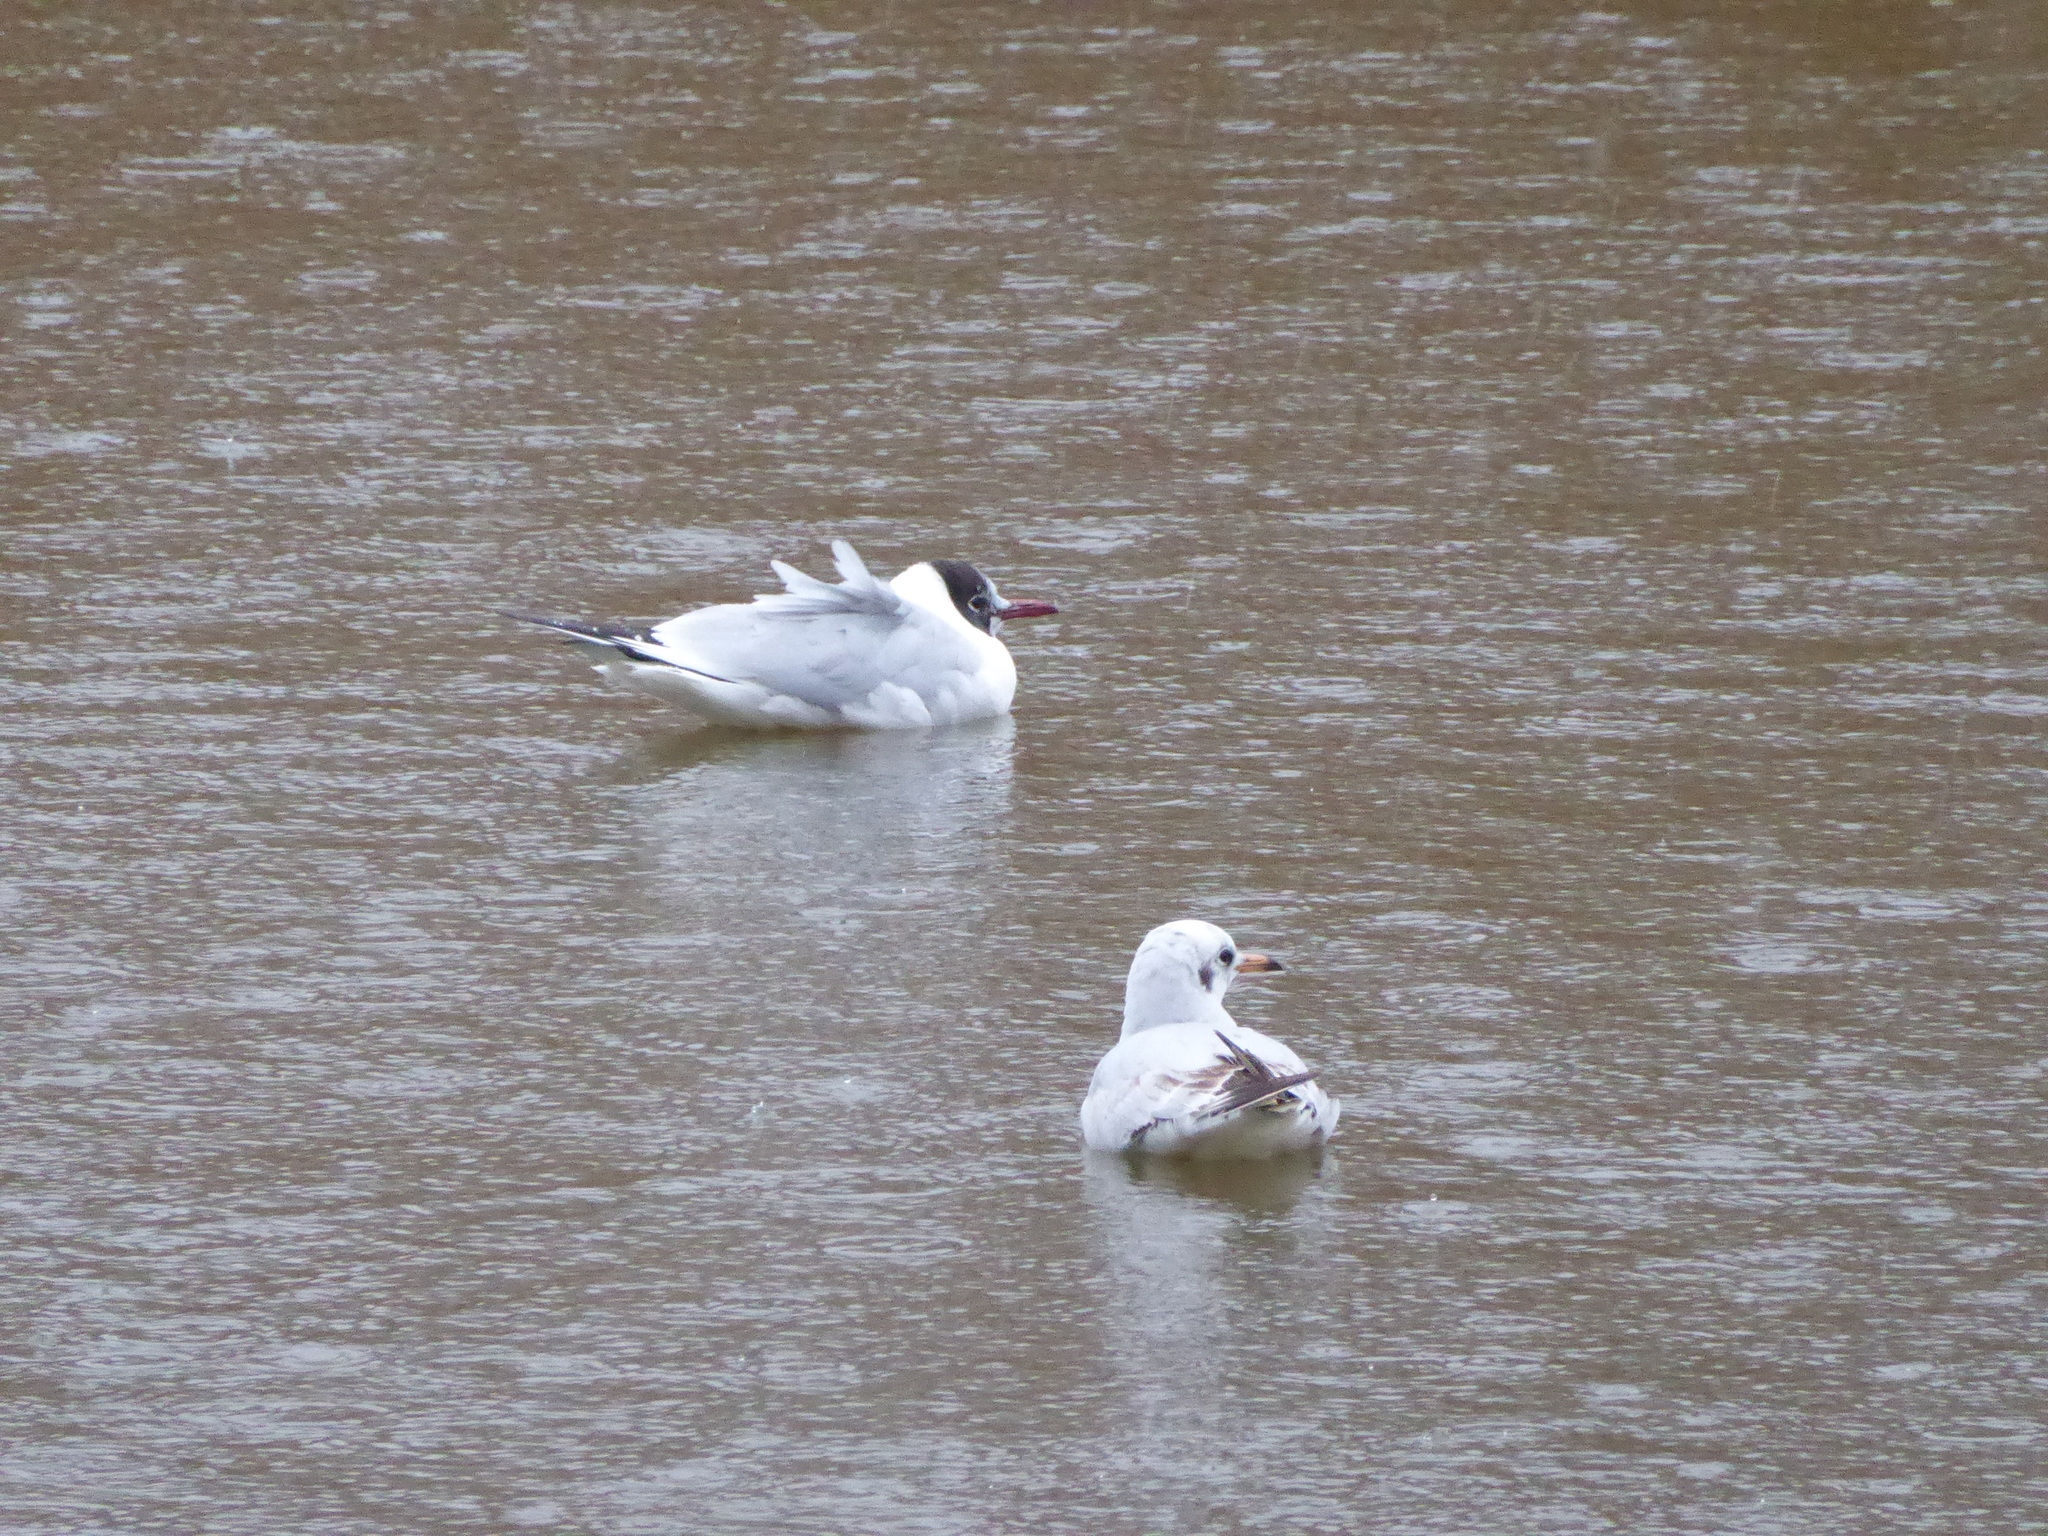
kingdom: Animalia
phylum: Chordata
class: Aves
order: Charadriiformes
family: Laridae
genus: Chroicocephalus
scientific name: Chroicocephalus ridibundus
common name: Black-headed gull
